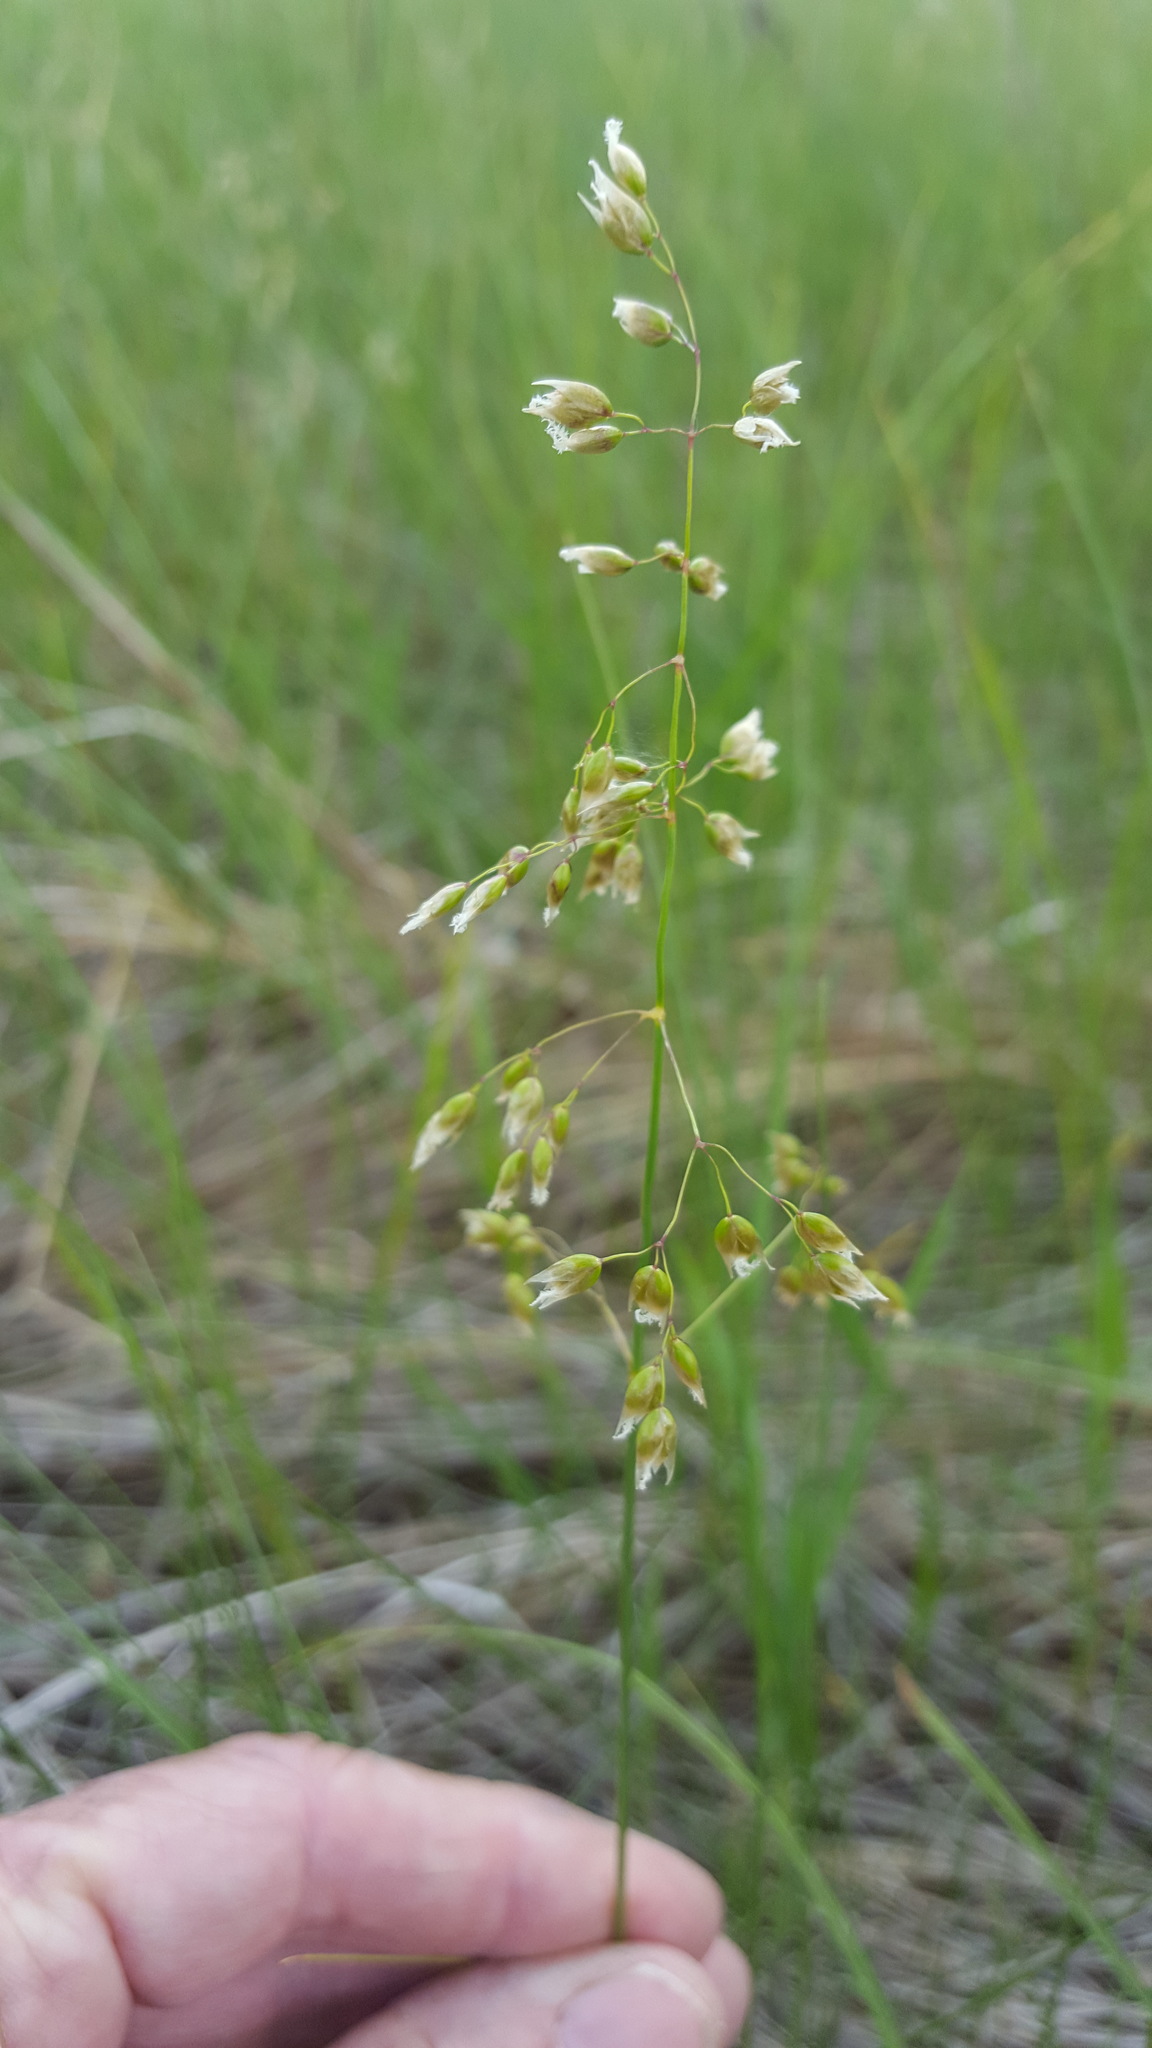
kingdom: Plantae
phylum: Tracheophyta
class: Liliopsida
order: Poales
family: Poaceae
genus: Anthoxanthum
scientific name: Anthoxanthum nitens
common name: Holy grass
